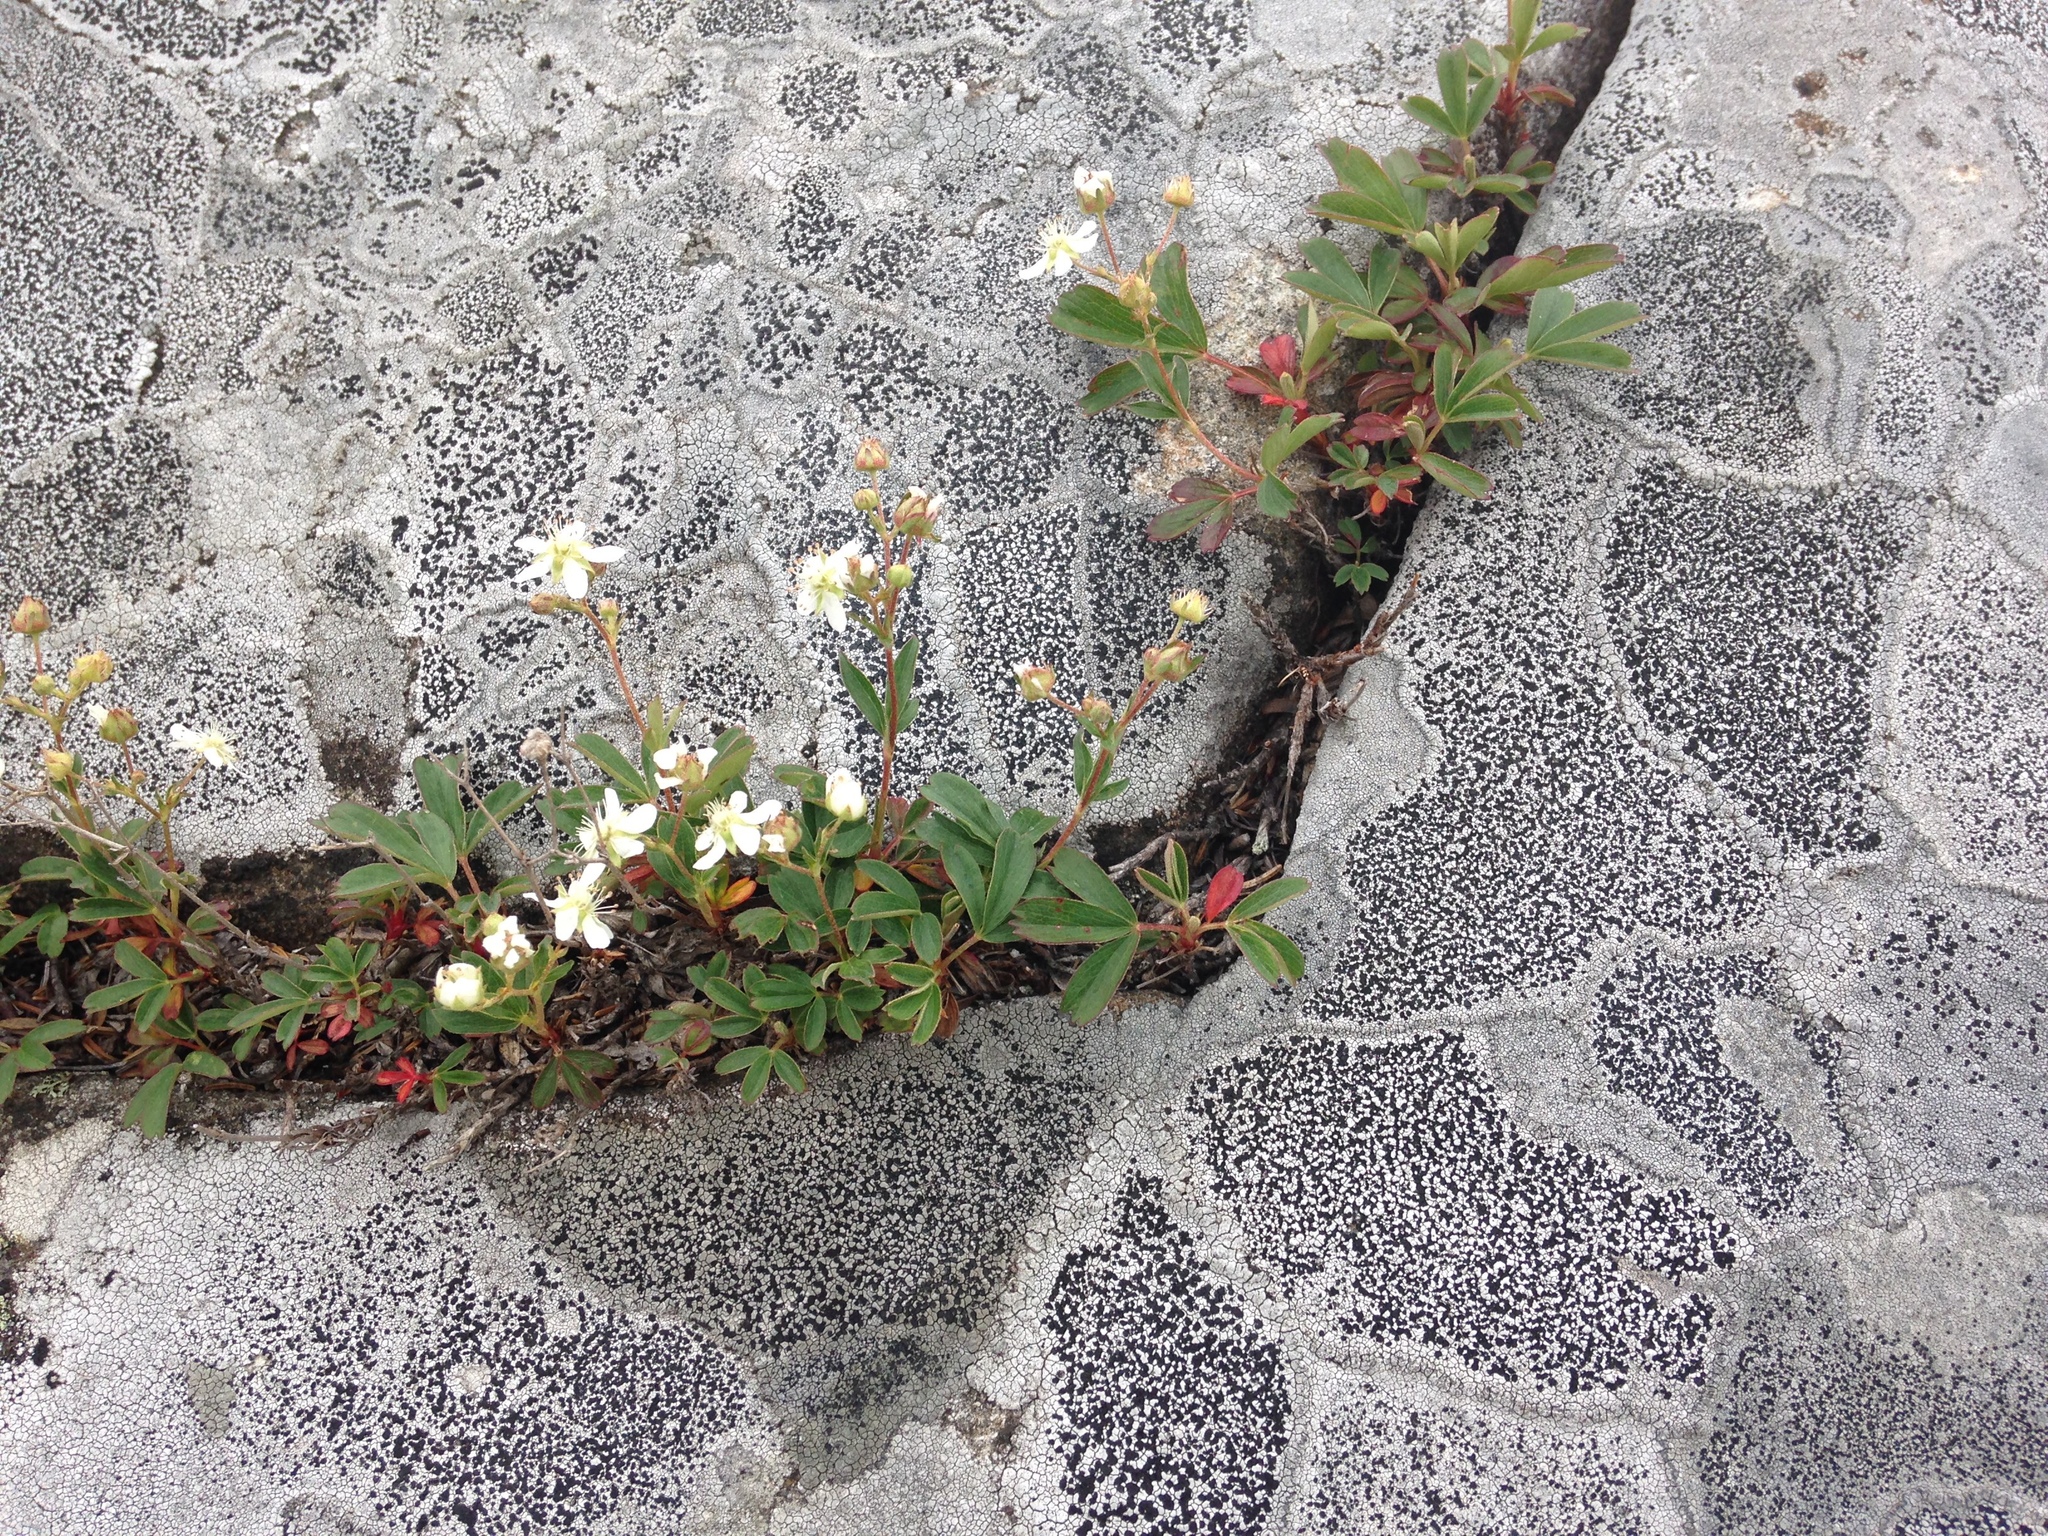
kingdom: Plantae
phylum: Tracheophyta
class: Magnoliopsida
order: Rosales
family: Rosaceae
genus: Sibbaldia
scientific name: Sibbaldia tridentata
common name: Three-toothed cinquefoil
